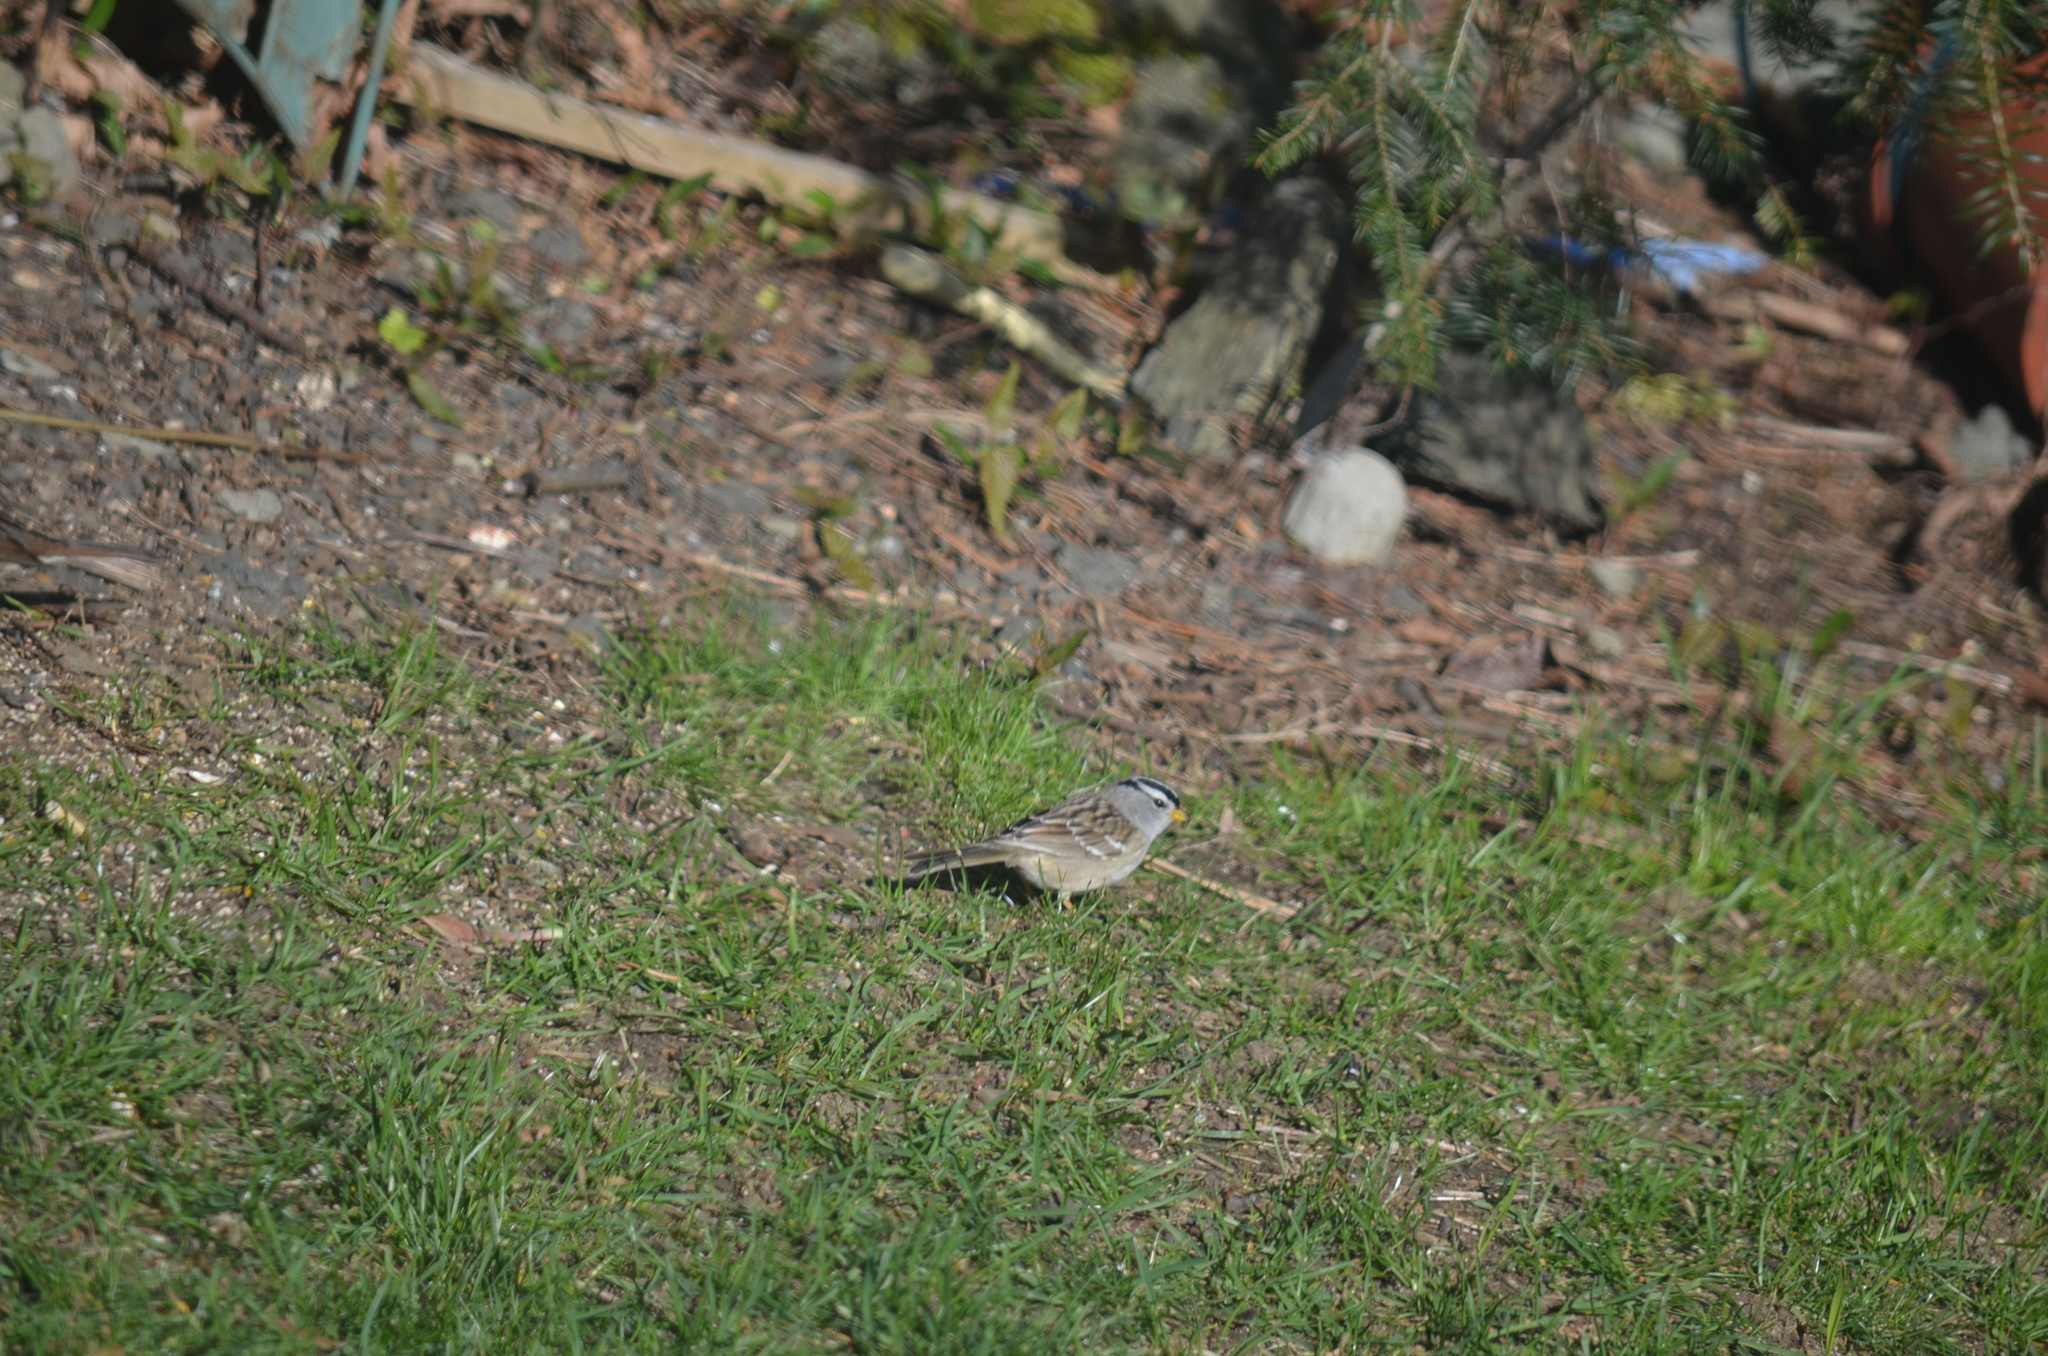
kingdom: Animalia
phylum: Chordata
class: Aves
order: Passeriformes
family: Passerellidae
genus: Zonotrichia
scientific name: Zonotrichia leucophrys
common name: White-crowned sparrow
